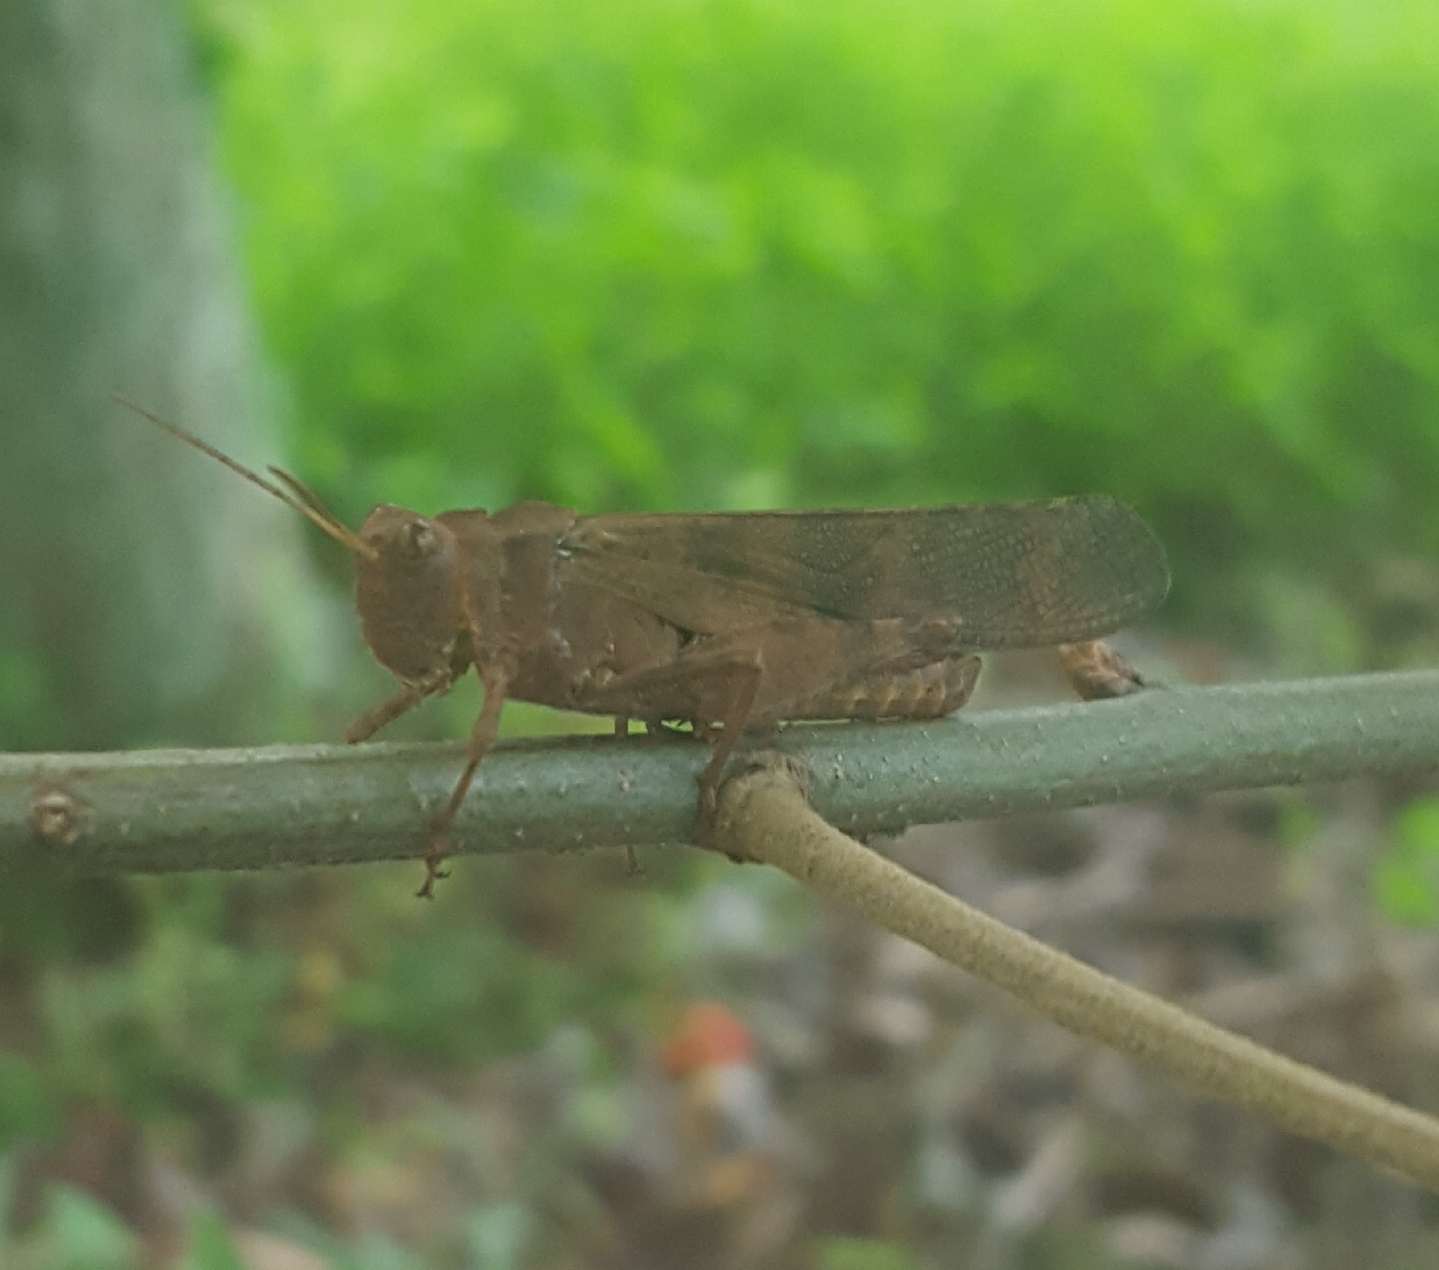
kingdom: Animalia
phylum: Arthropoda
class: Insecta
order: Orthoptera
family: Acrididae
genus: Dissosteira
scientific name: Dissosteira carolina
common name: Carolina grasshopper
